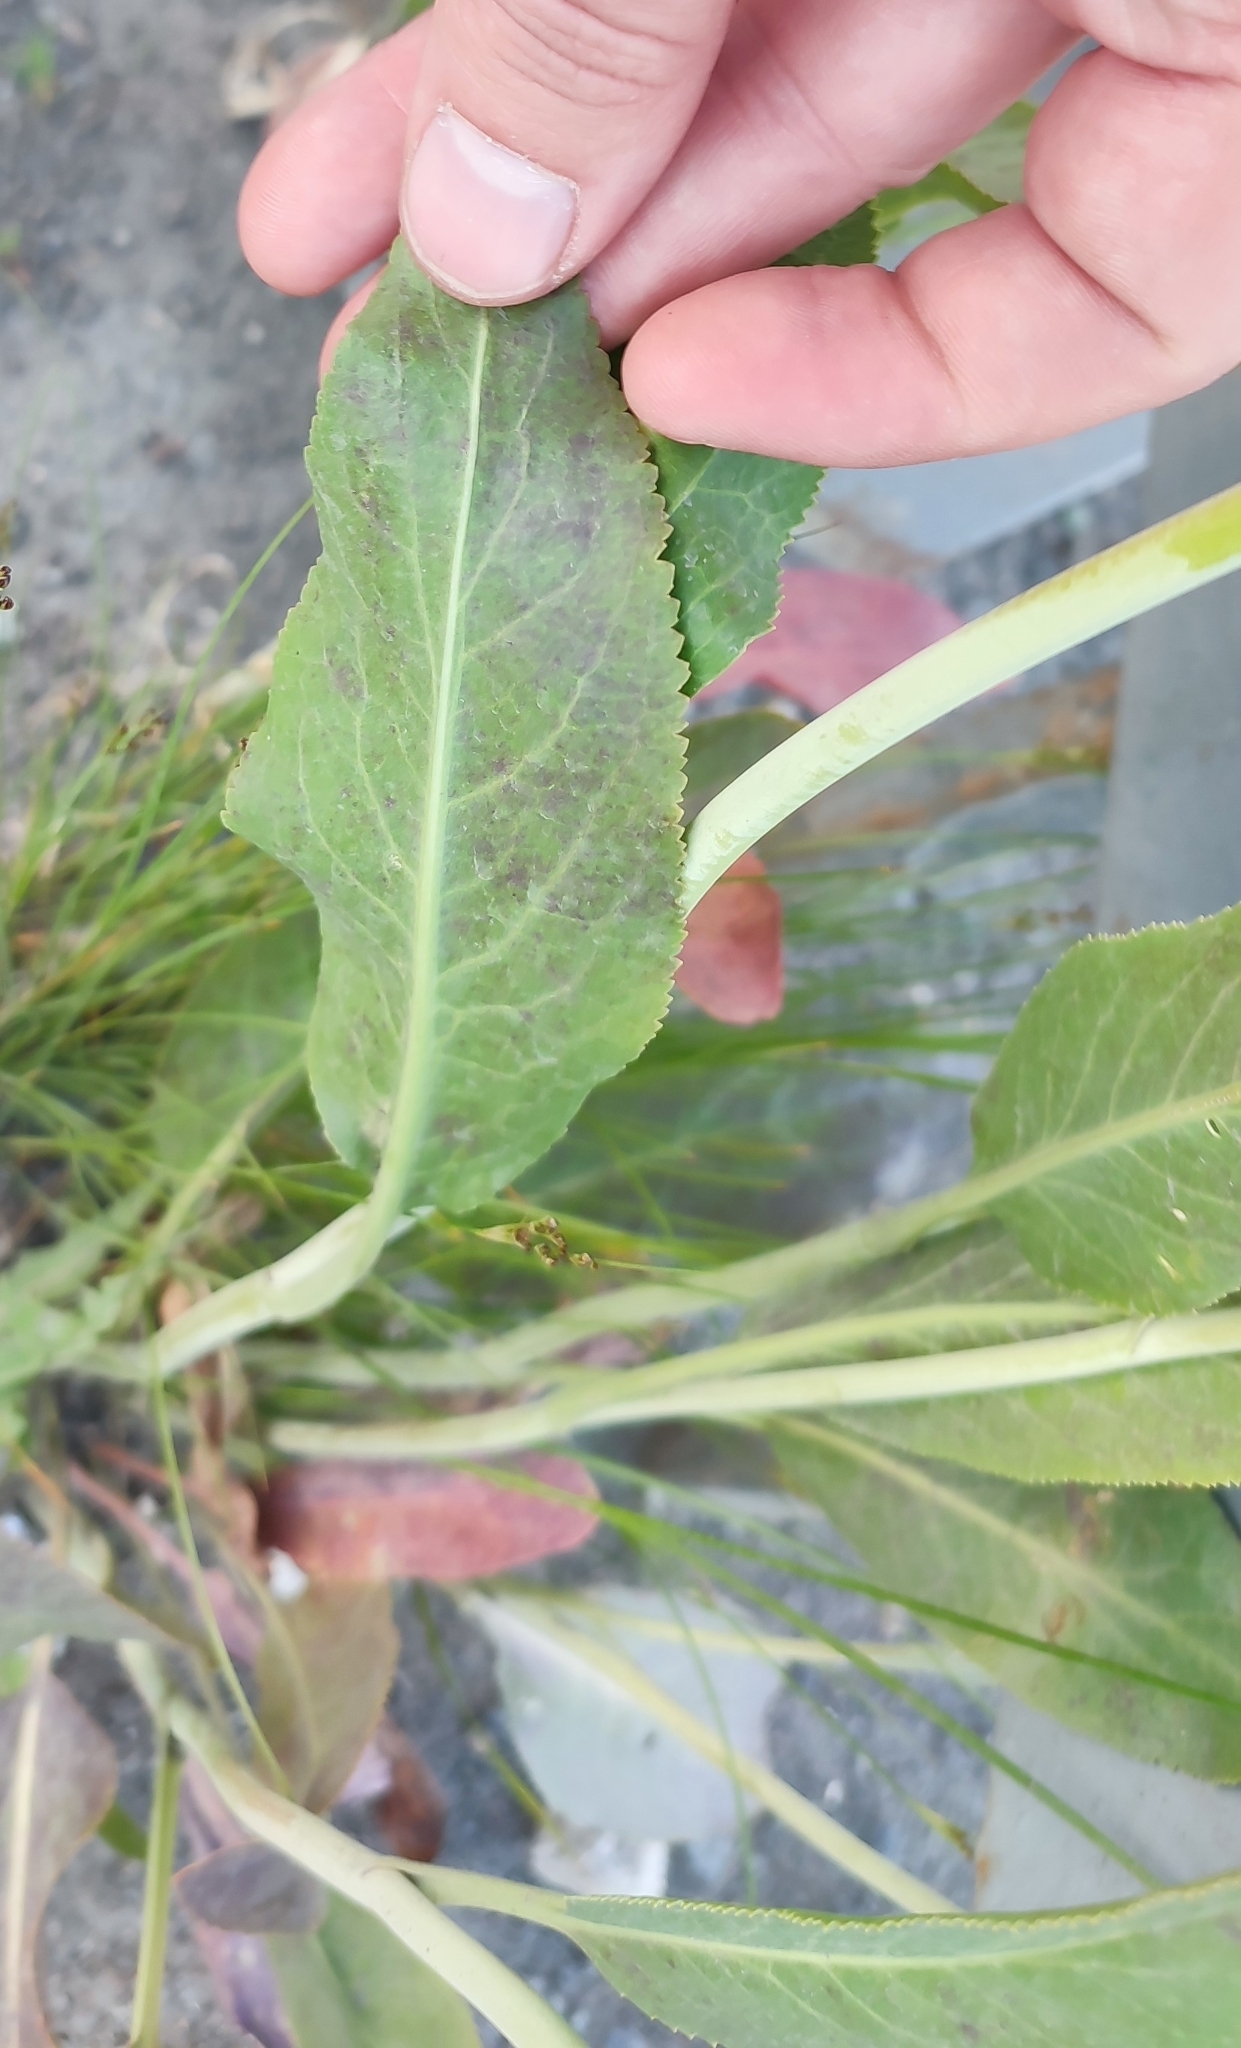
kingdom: Plantae
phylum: Tracheophyta
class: Magnoliopsida
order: Brassicales
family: Brassicaceae
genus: Lepidium
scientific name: Lepidium latifolium
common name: Dittander
